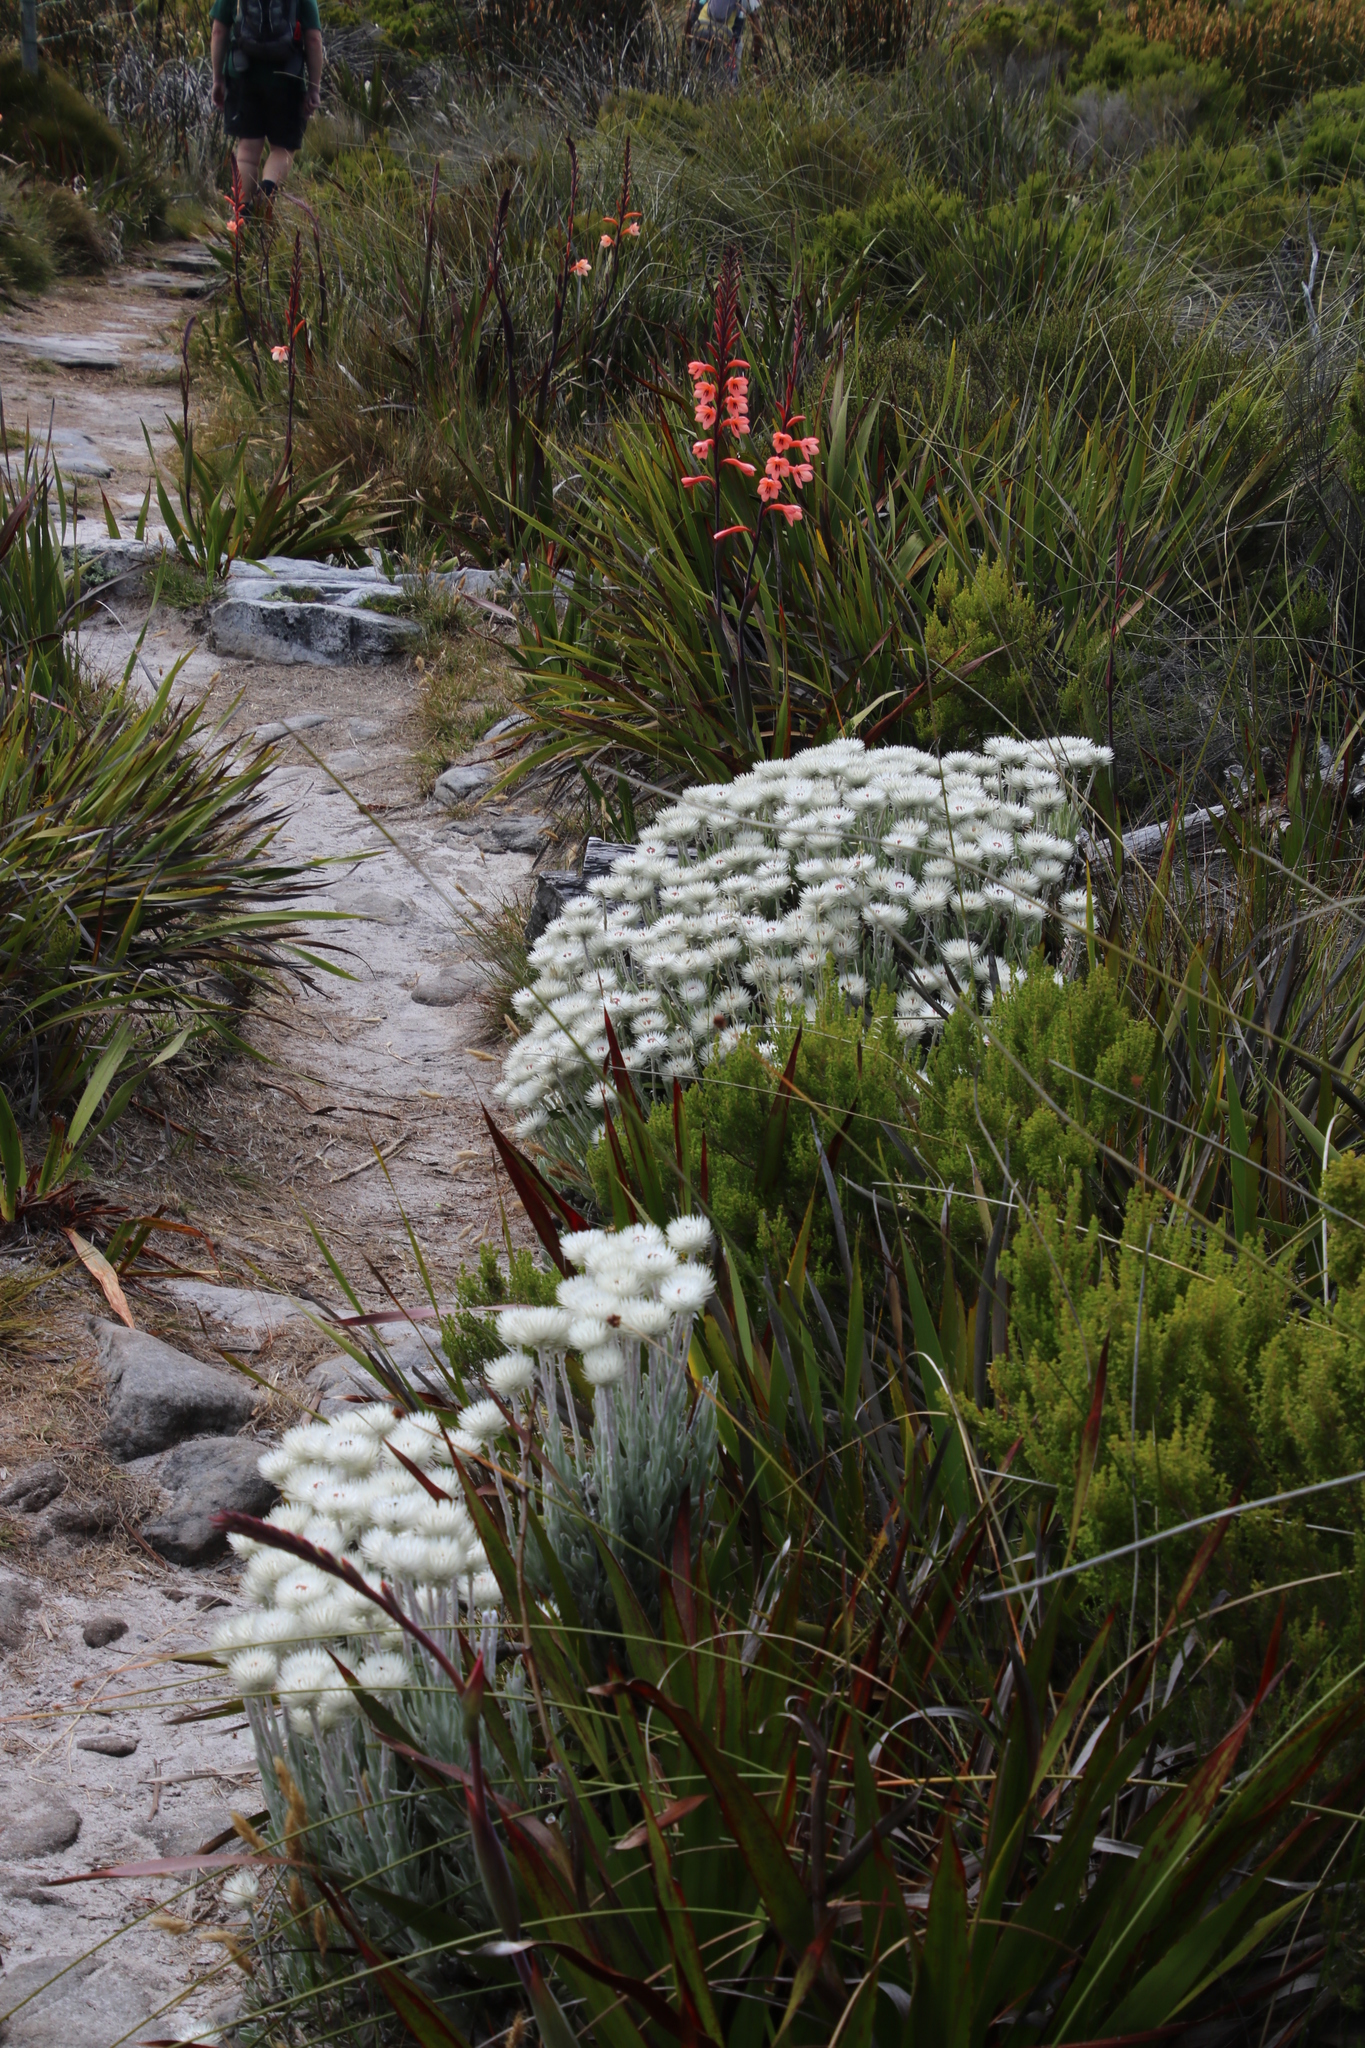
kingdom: Plantae
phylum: Tracheophyta
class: Magnoliopsida
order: Asterales
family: Asteraceae
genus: Syncarpha
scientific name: Syncarpha vestita
